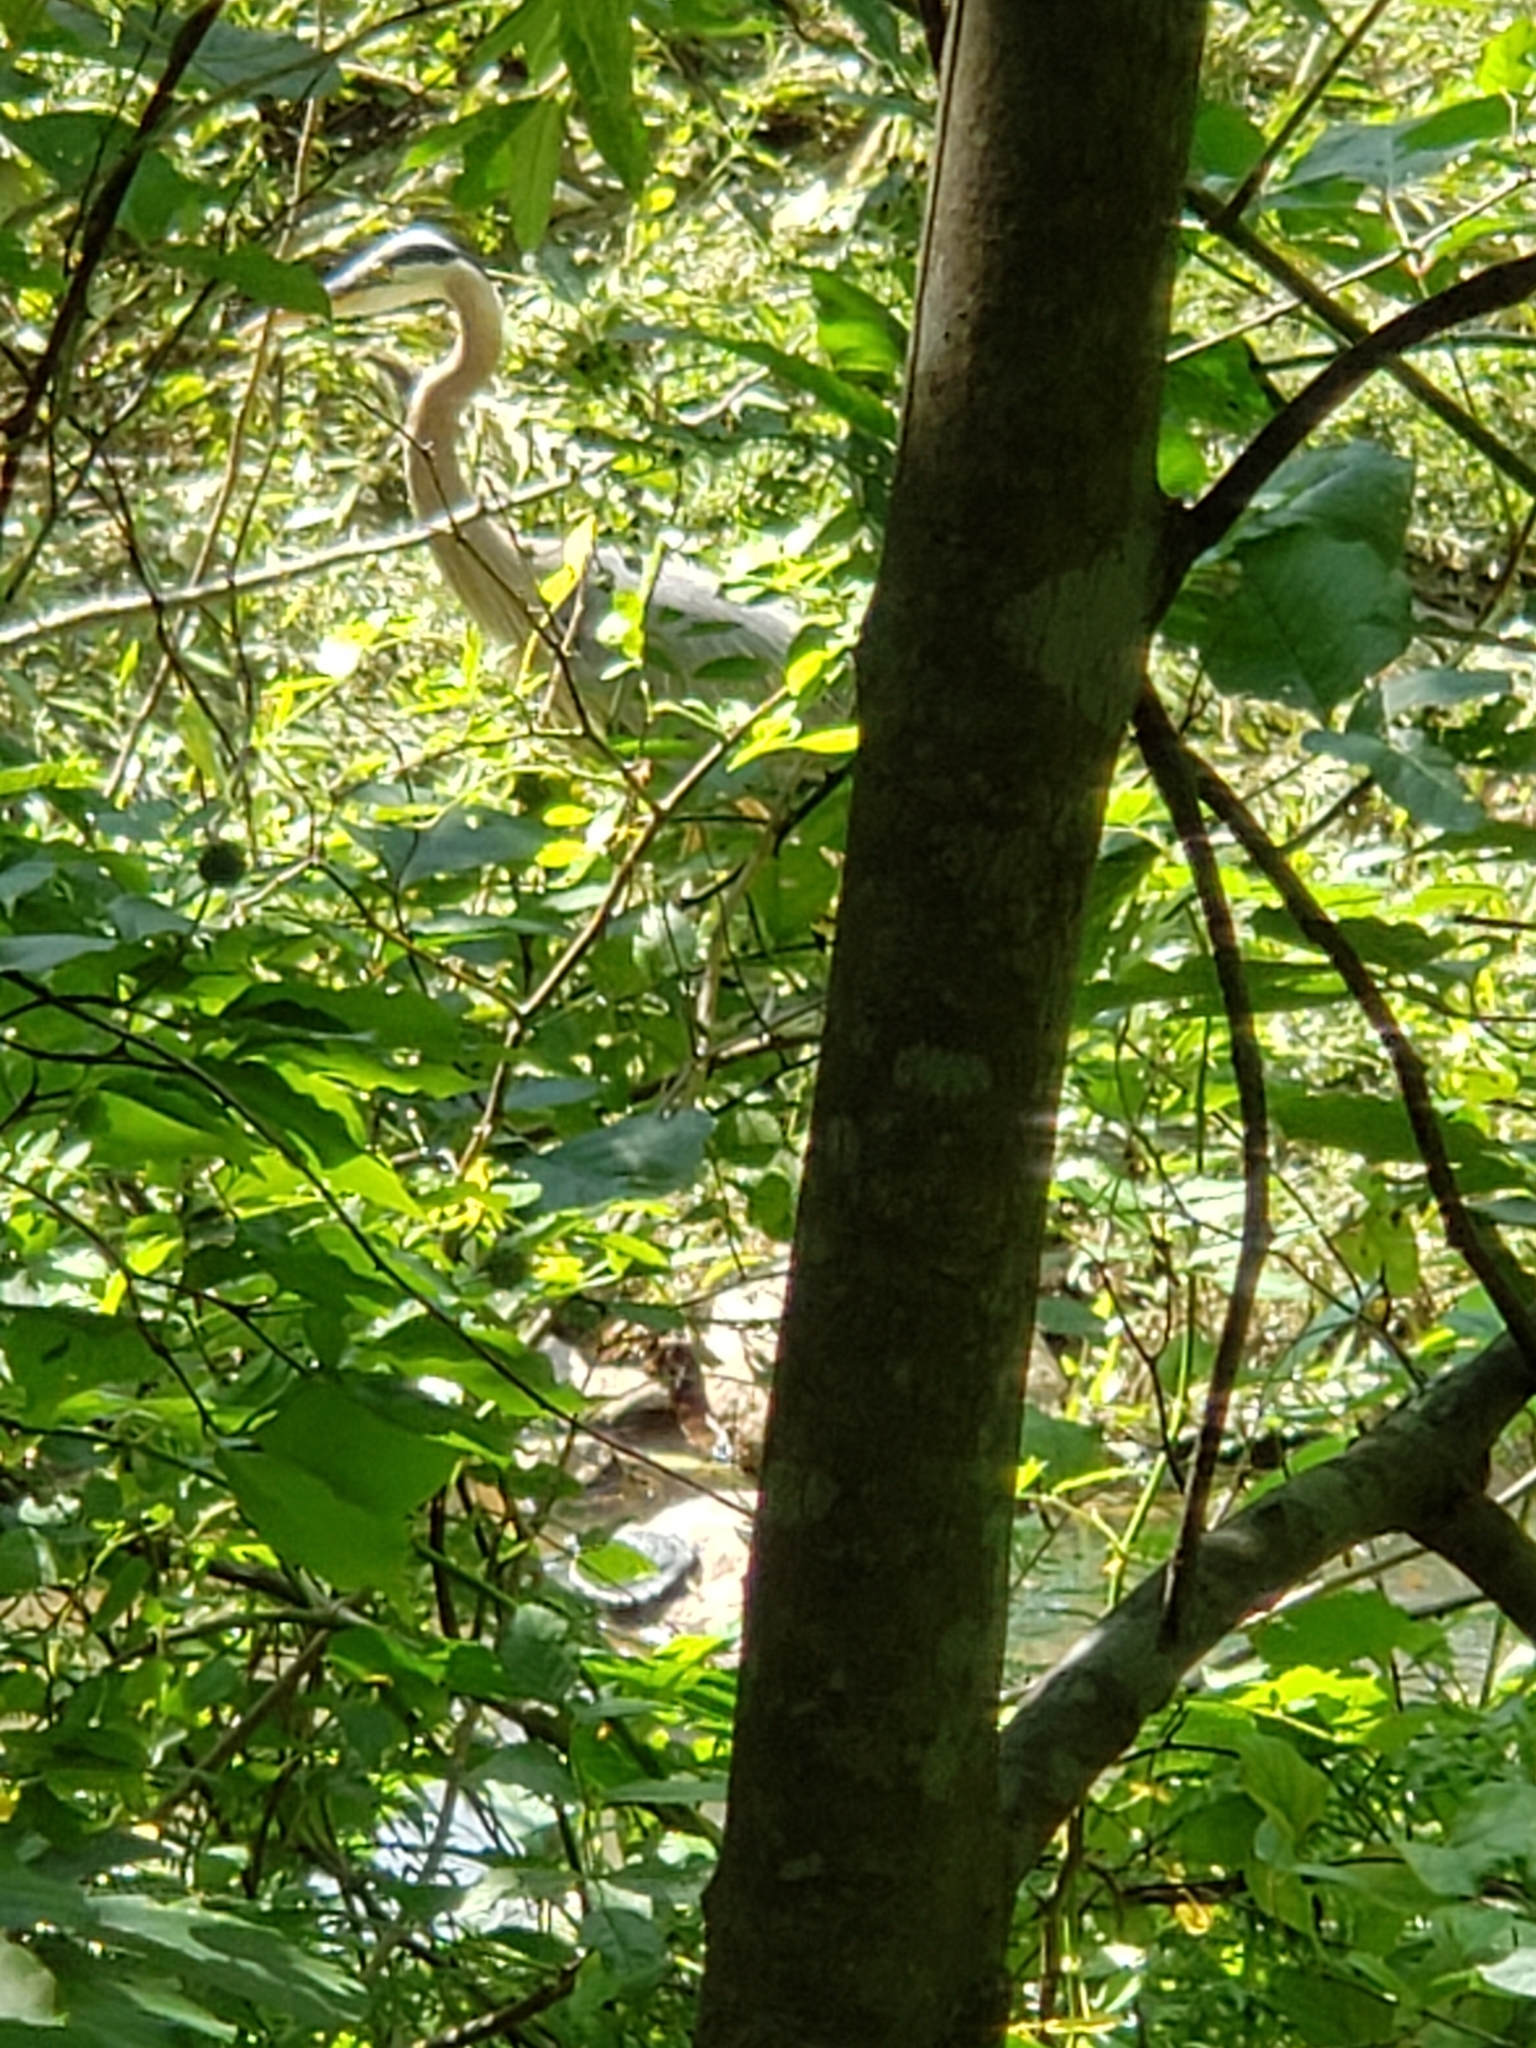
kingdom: Animalia
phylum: Chordata
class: Aves
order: Pelecaniformes
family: Ardeidae
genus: Ardea
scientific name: Ardea herodias
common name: Great blue heron
